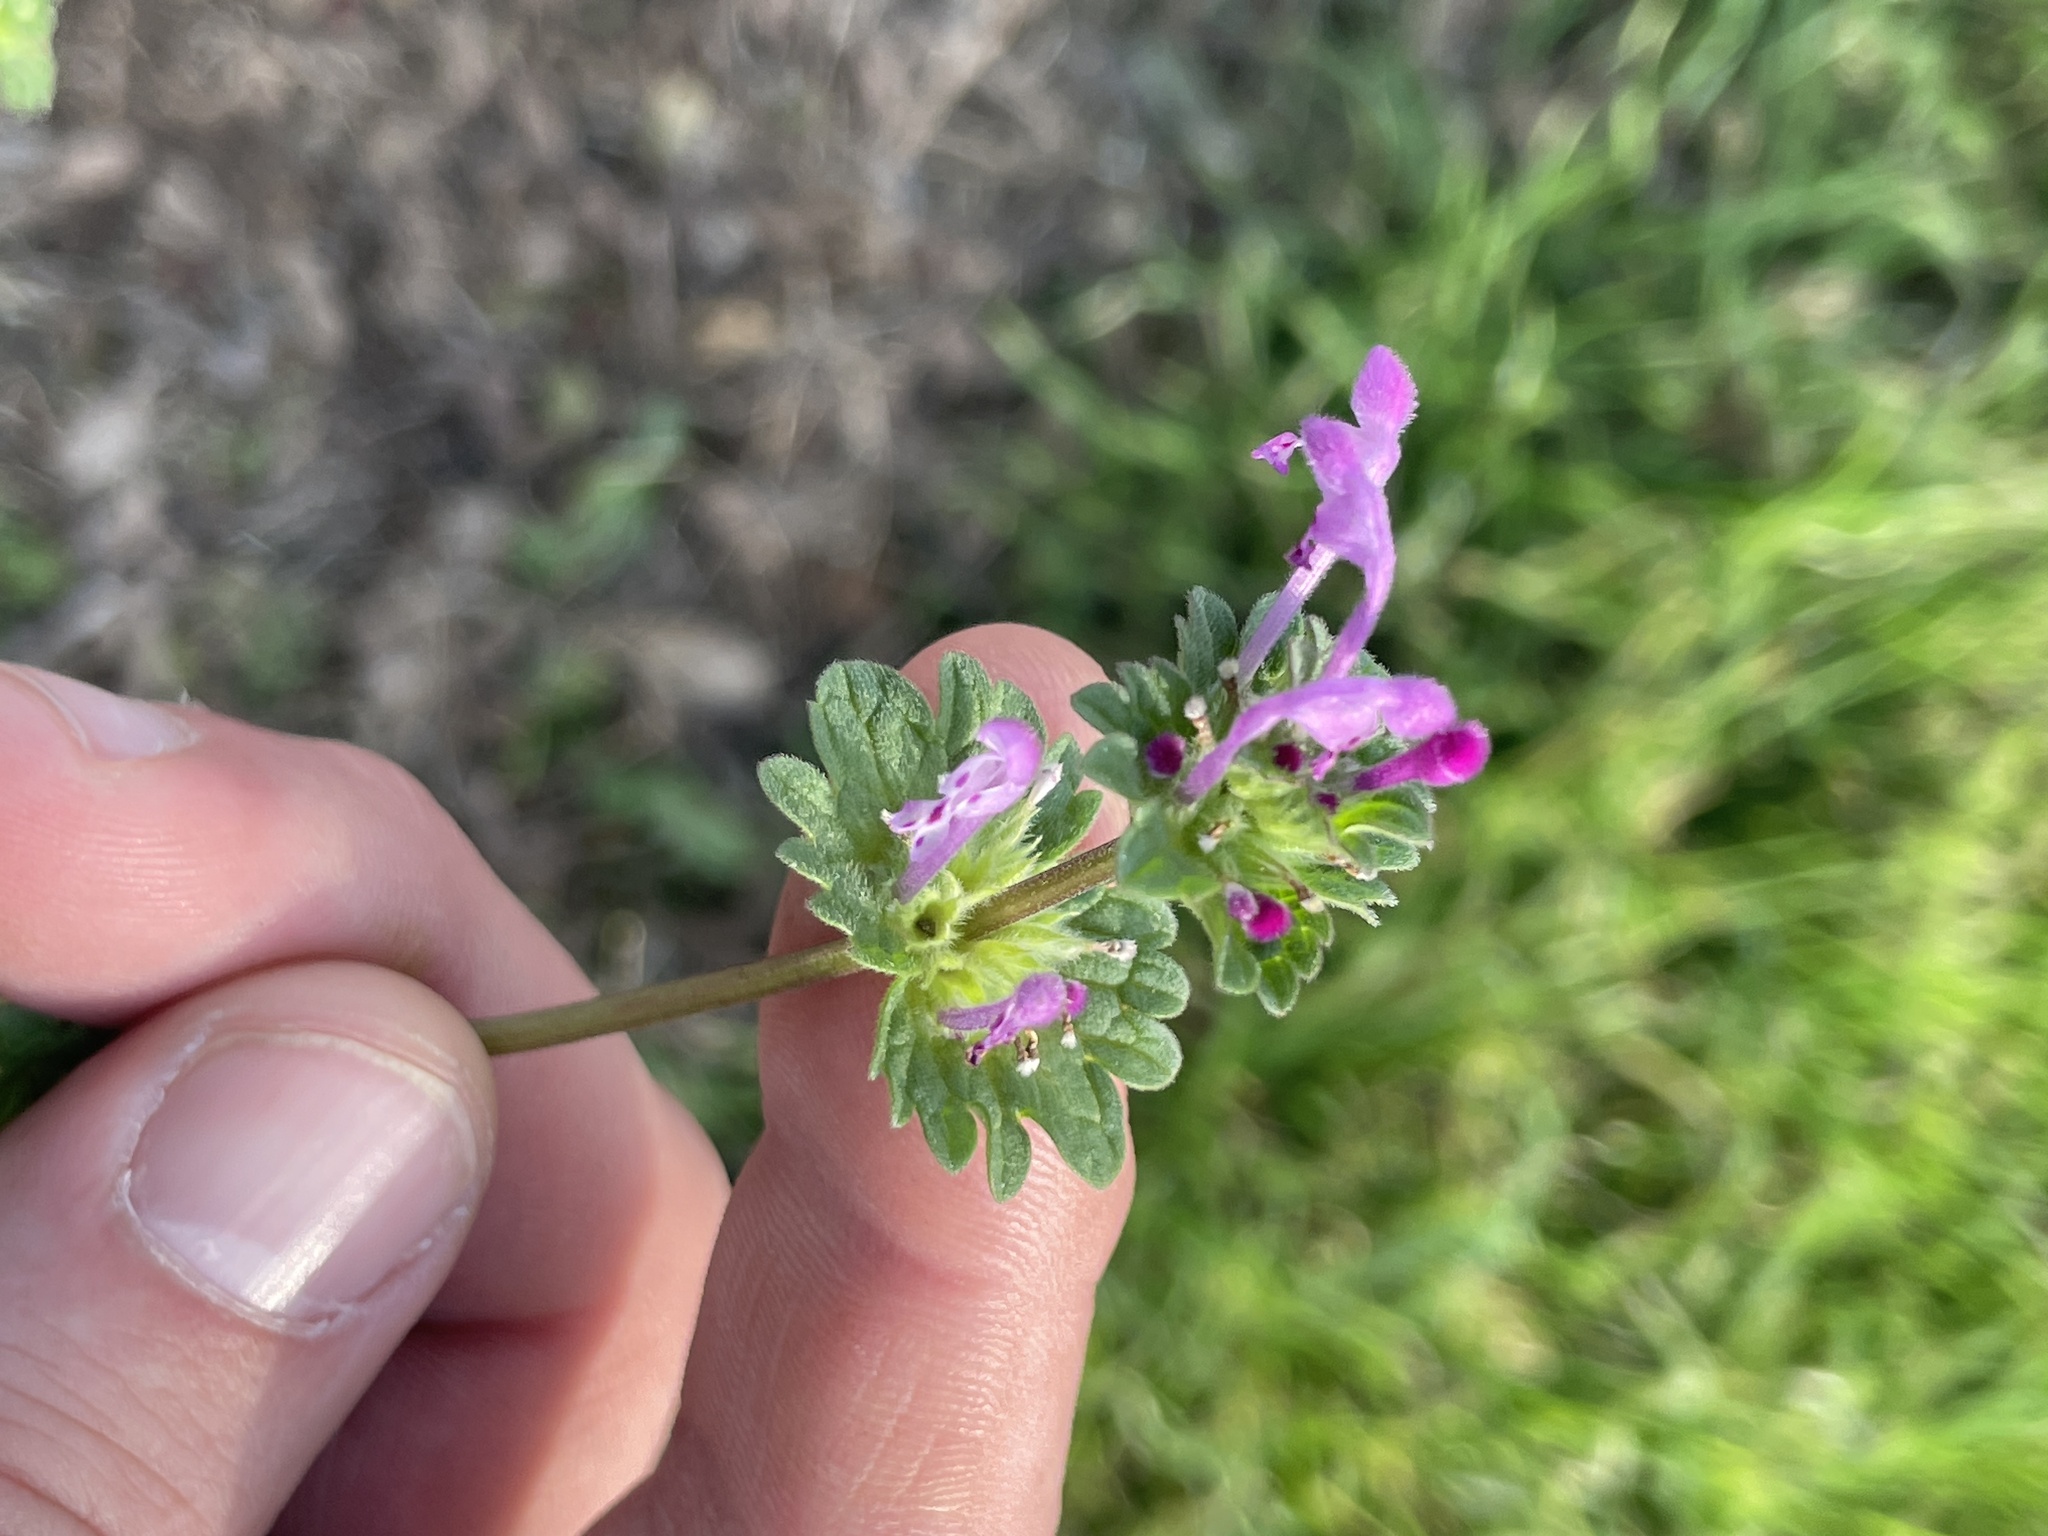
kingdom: Plantae
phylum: Tracheophyta
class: Magnoliopsida
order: Lamiales
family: Lamiaceae
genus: Lamium
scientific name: Lamium amplexicaule
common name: Henbit dead-nettle
